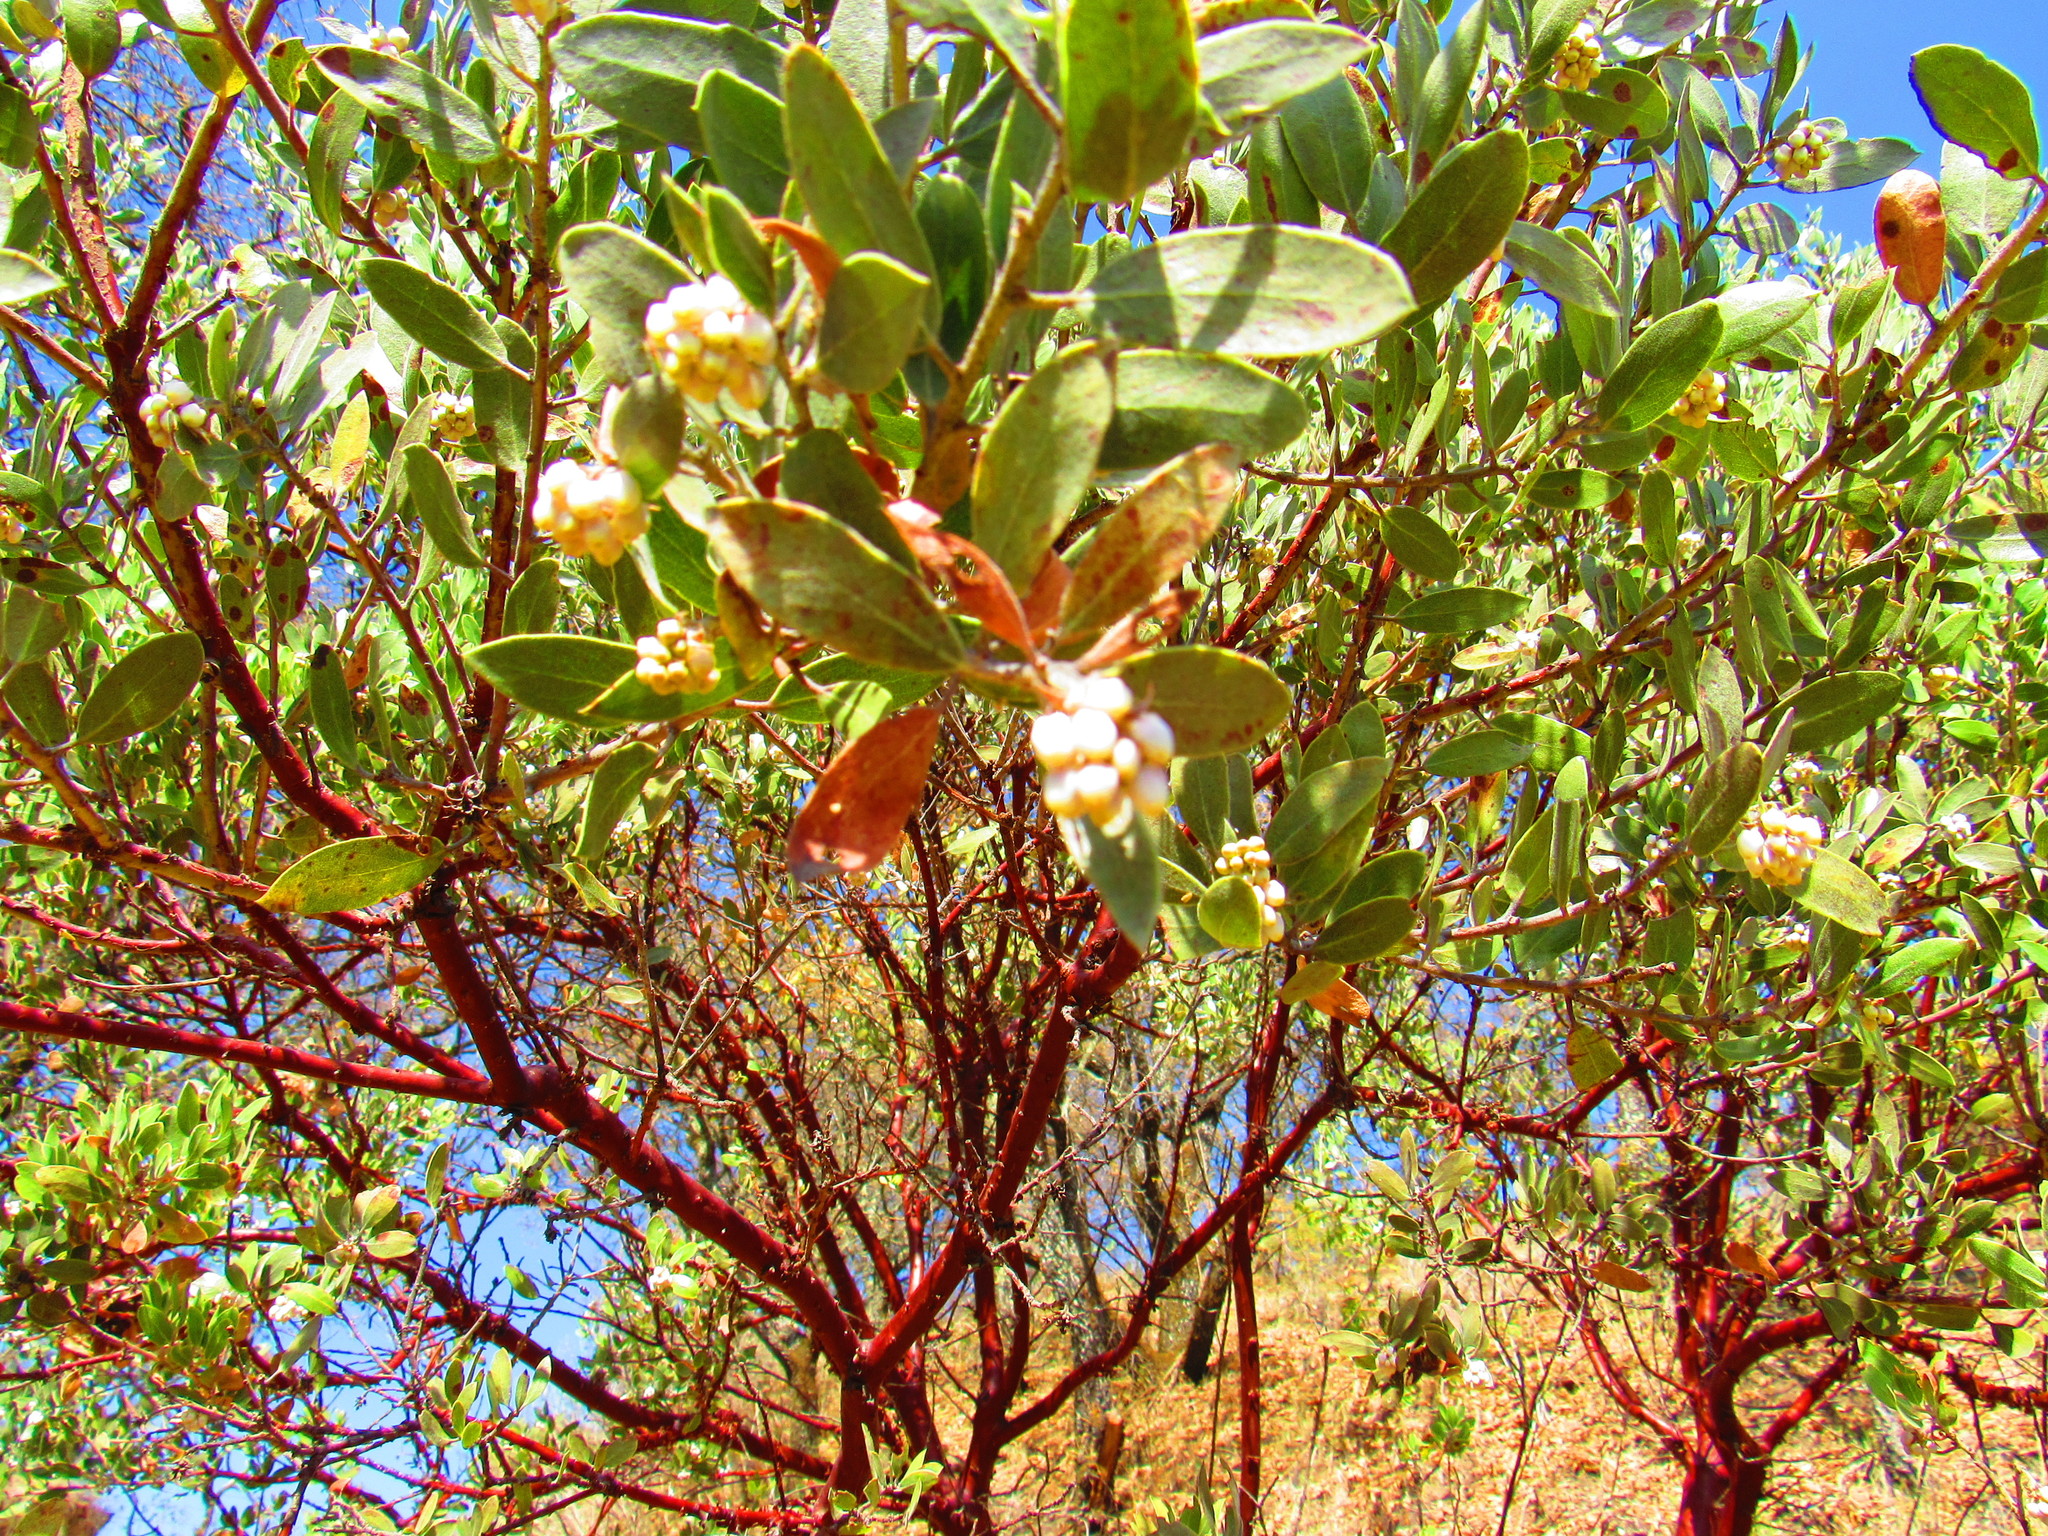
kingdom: Plantae
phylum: Tracheophyta
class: Magnoliopsida
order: Ericales
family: Ericaceae
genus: Arctostaphylos
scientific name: Arctostaphylos pungens
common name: Mexican manzanita
